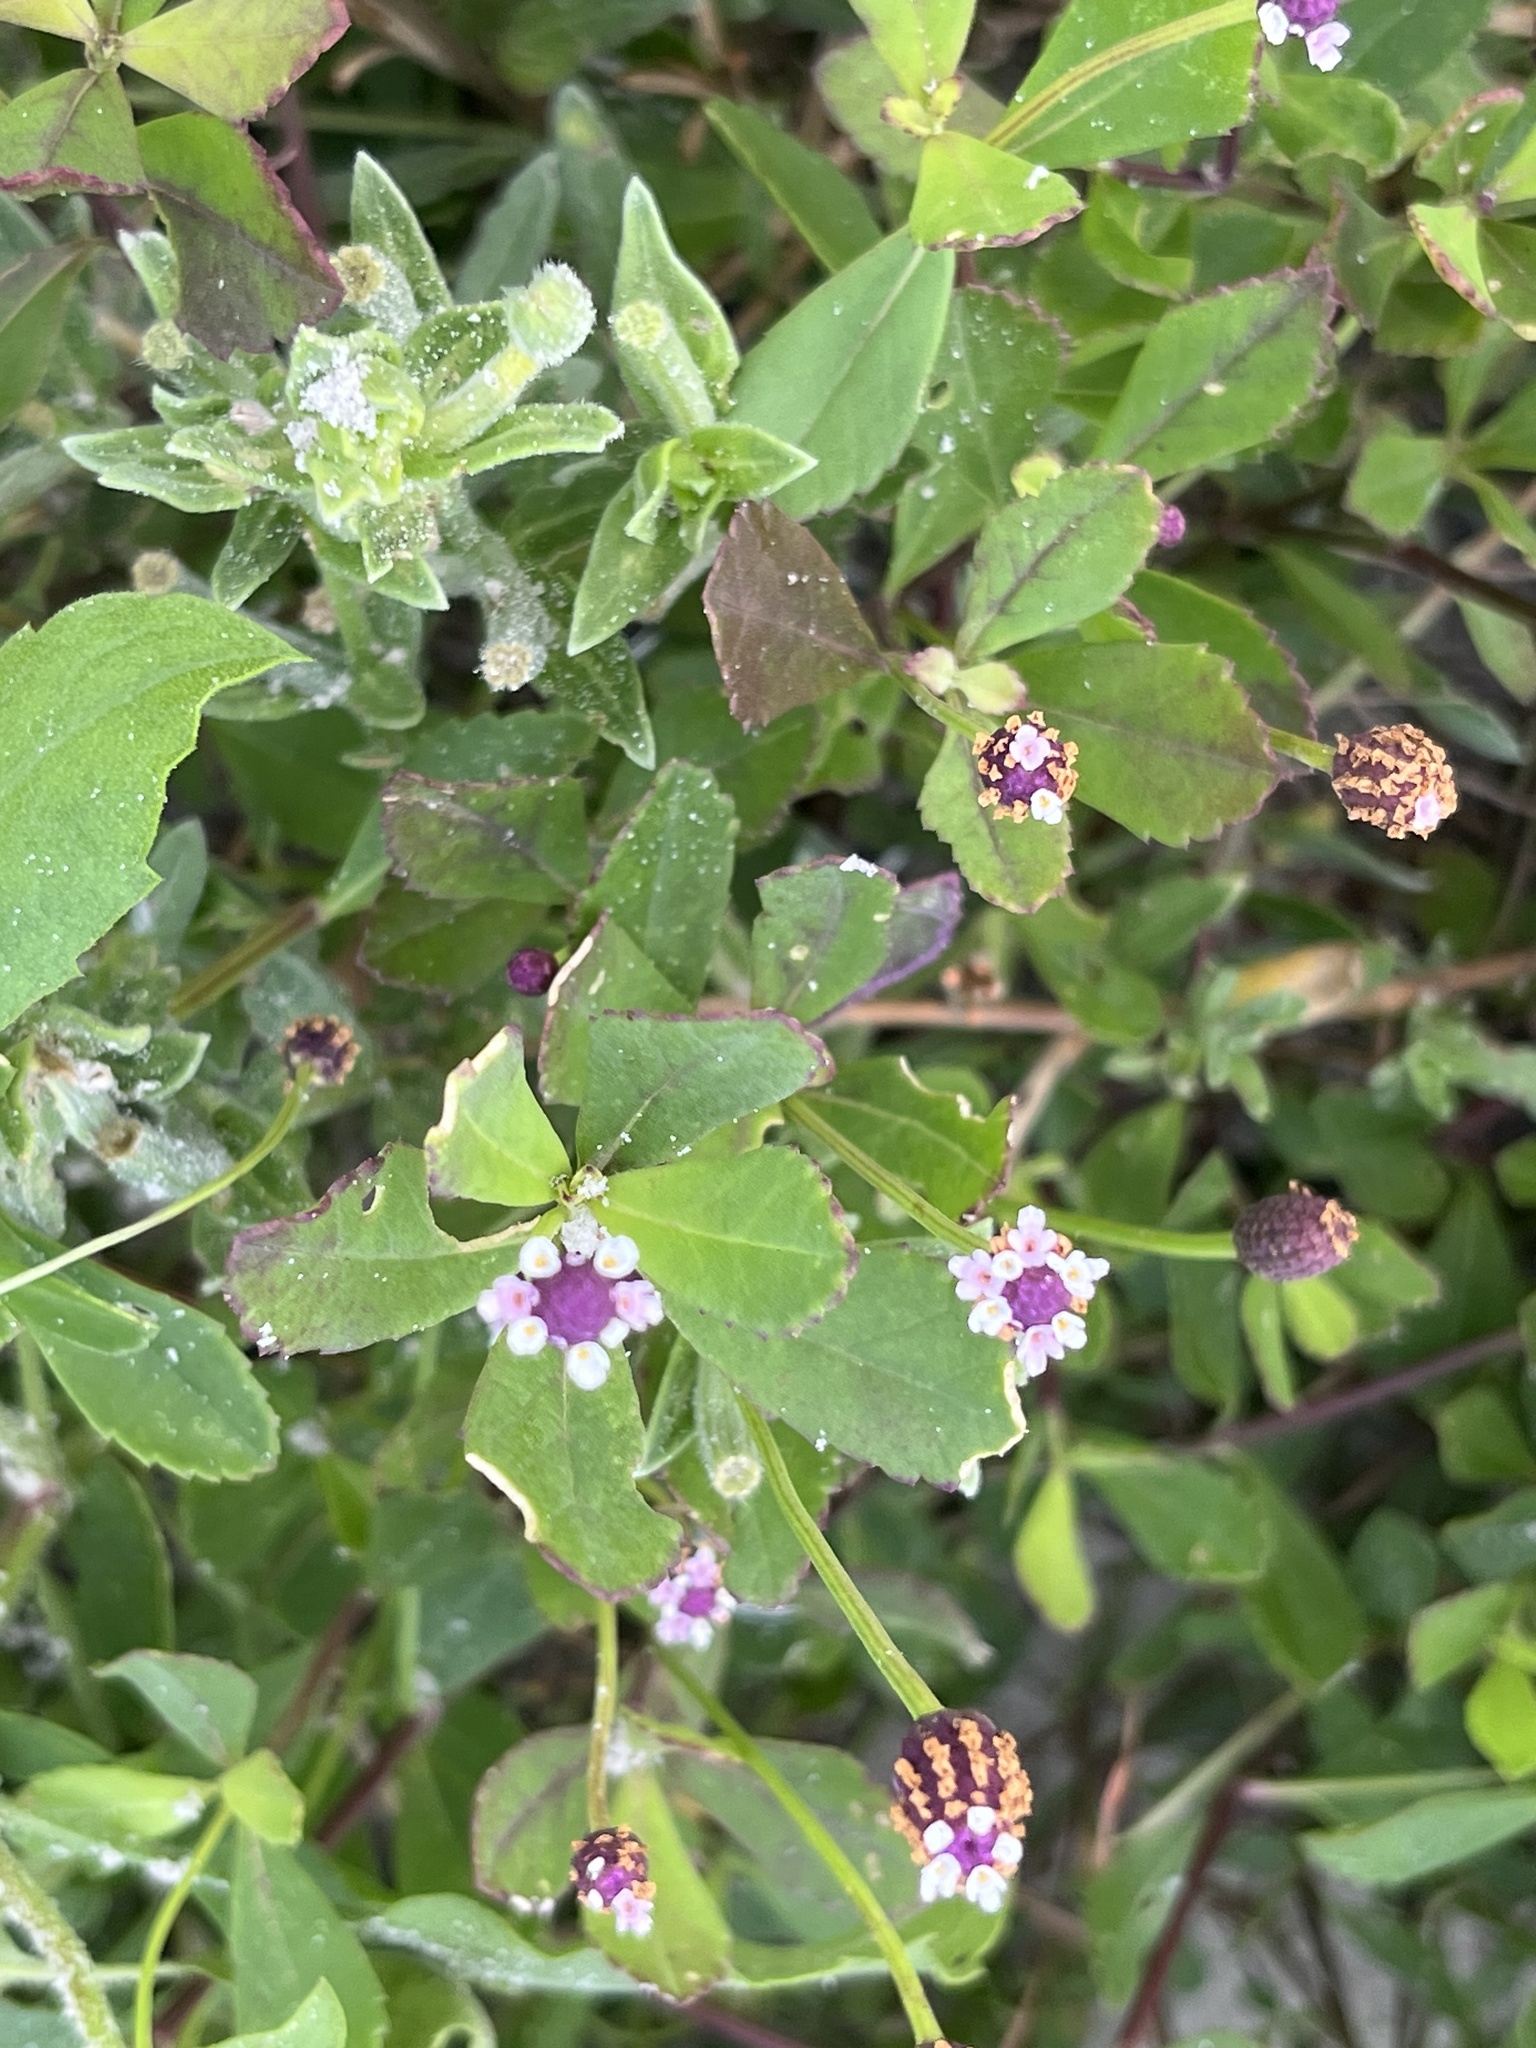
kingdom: Plantae
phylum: Tracheophyta
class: Magnoliopsida
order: Lamiales
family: Verbenaceae
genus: Phyla
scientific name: Phyla nodiflora
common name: Frogfruit
